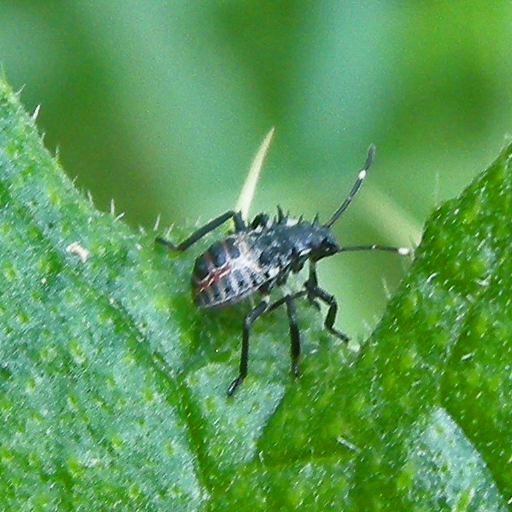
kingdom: Animalia
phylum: Arthropoda
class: Insecta
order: Hemiptera
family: Pentatomidae
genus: Halyomorpha
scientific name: Halyomorpha halys
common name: Brown marmorated stink bug
